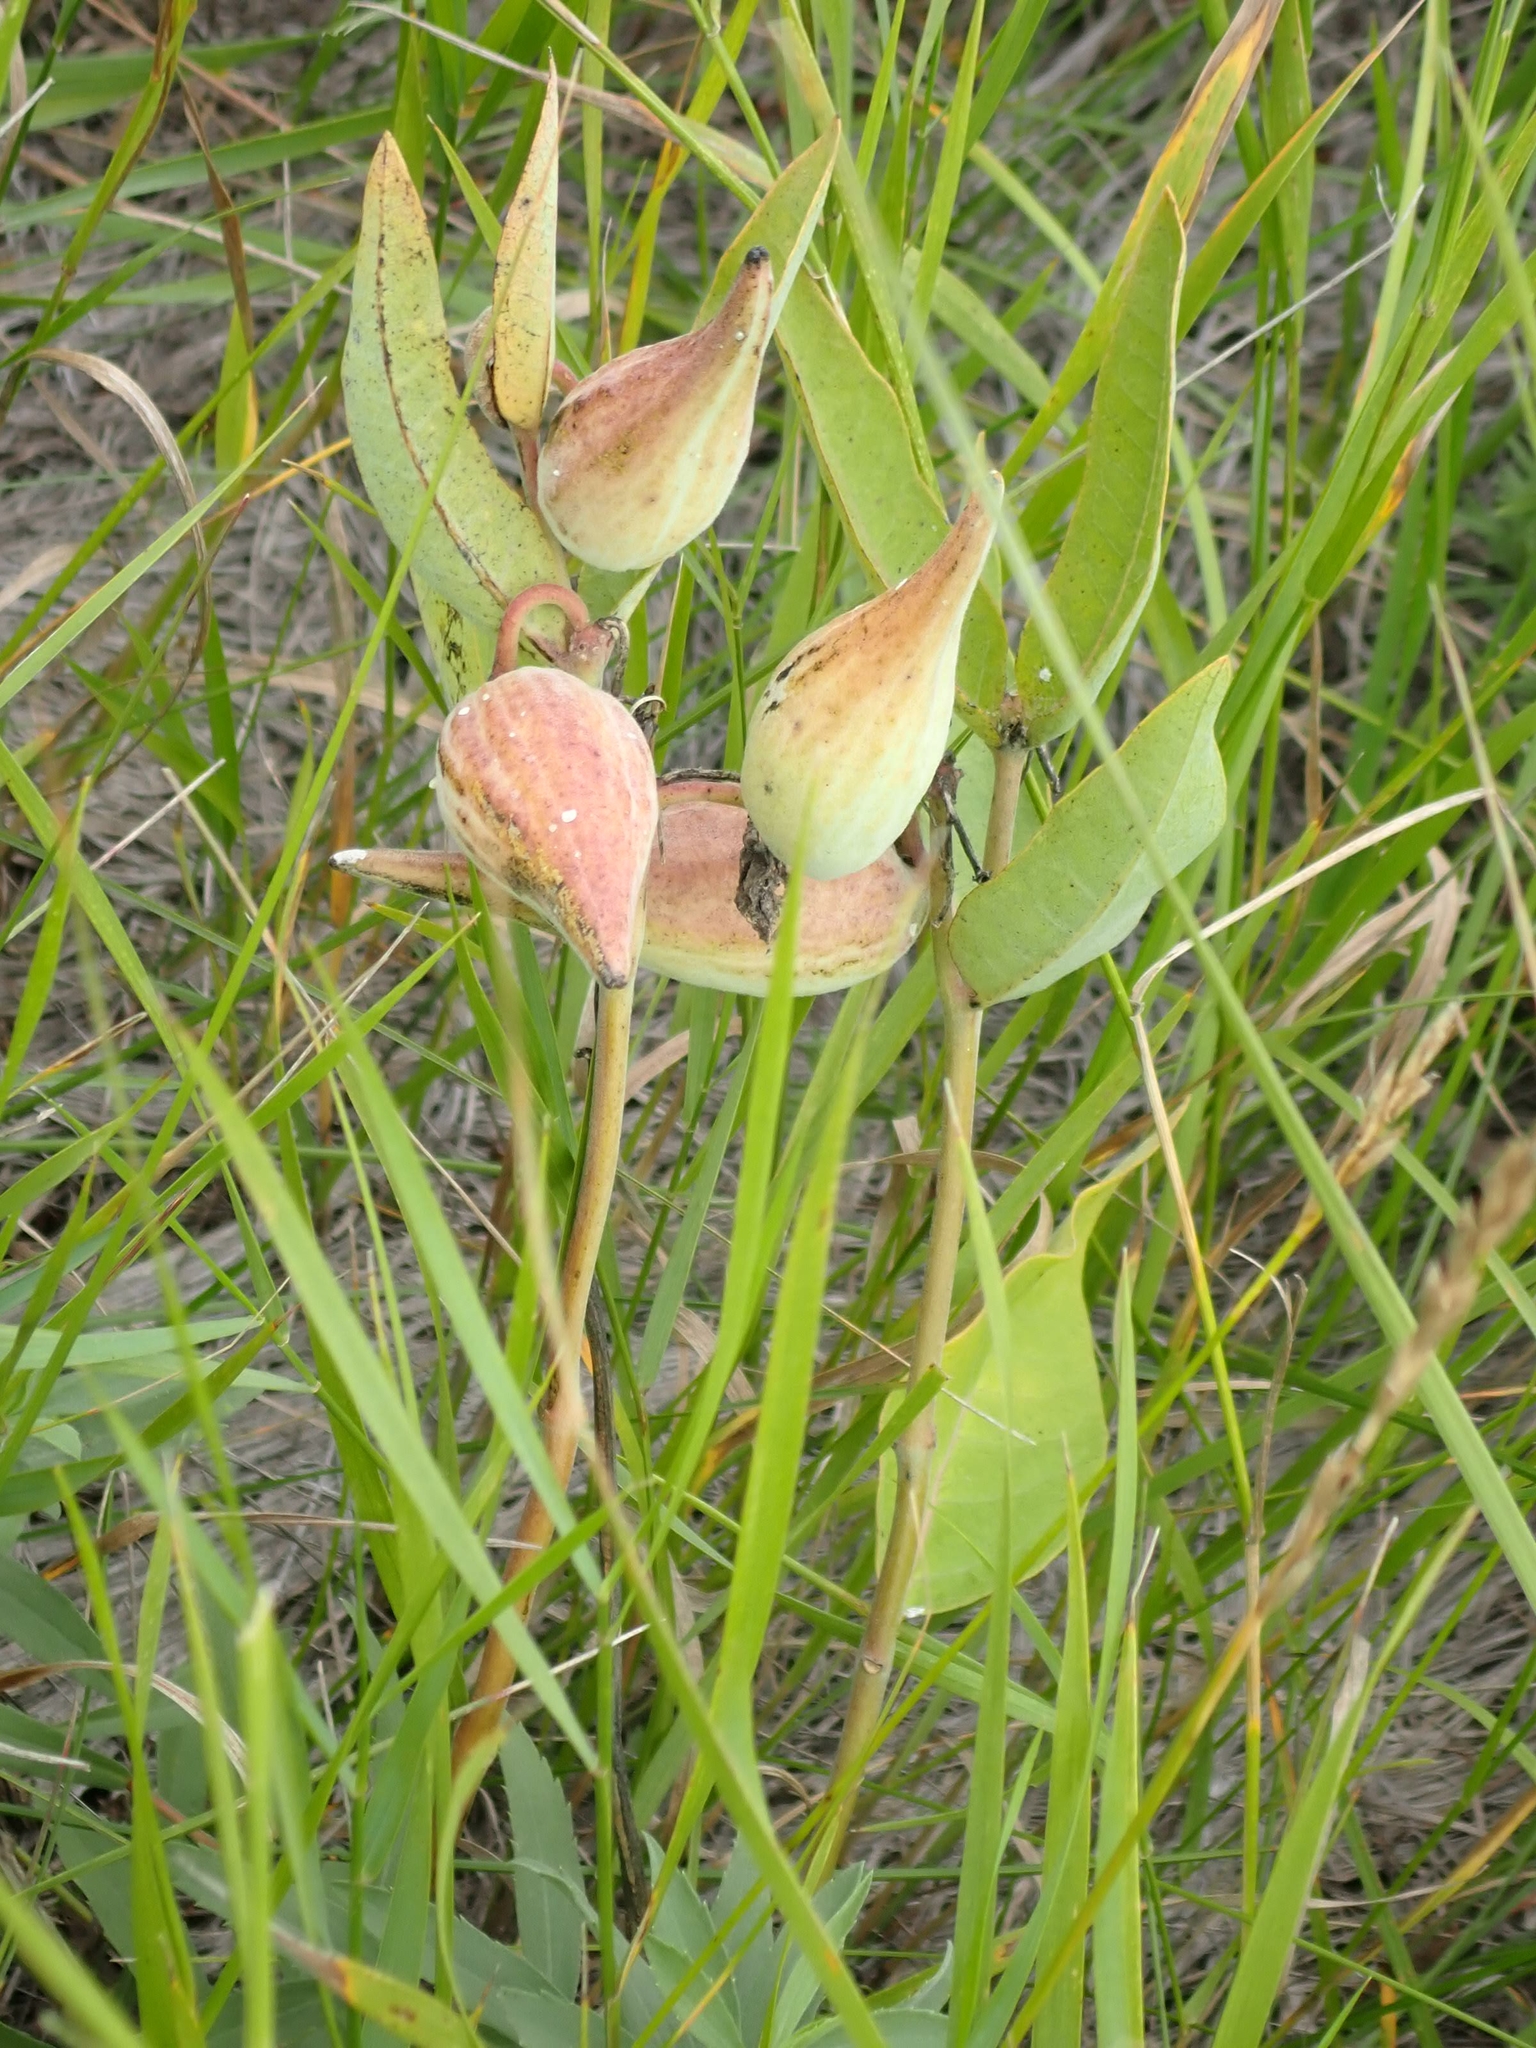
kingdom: Plantae
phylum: Tracheophyta
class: Magnoliopsida
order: Gentianales
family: Apocynaceae
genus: Asclepias
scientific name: Asclepias ovalifolia
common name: Dwarf milkweed
